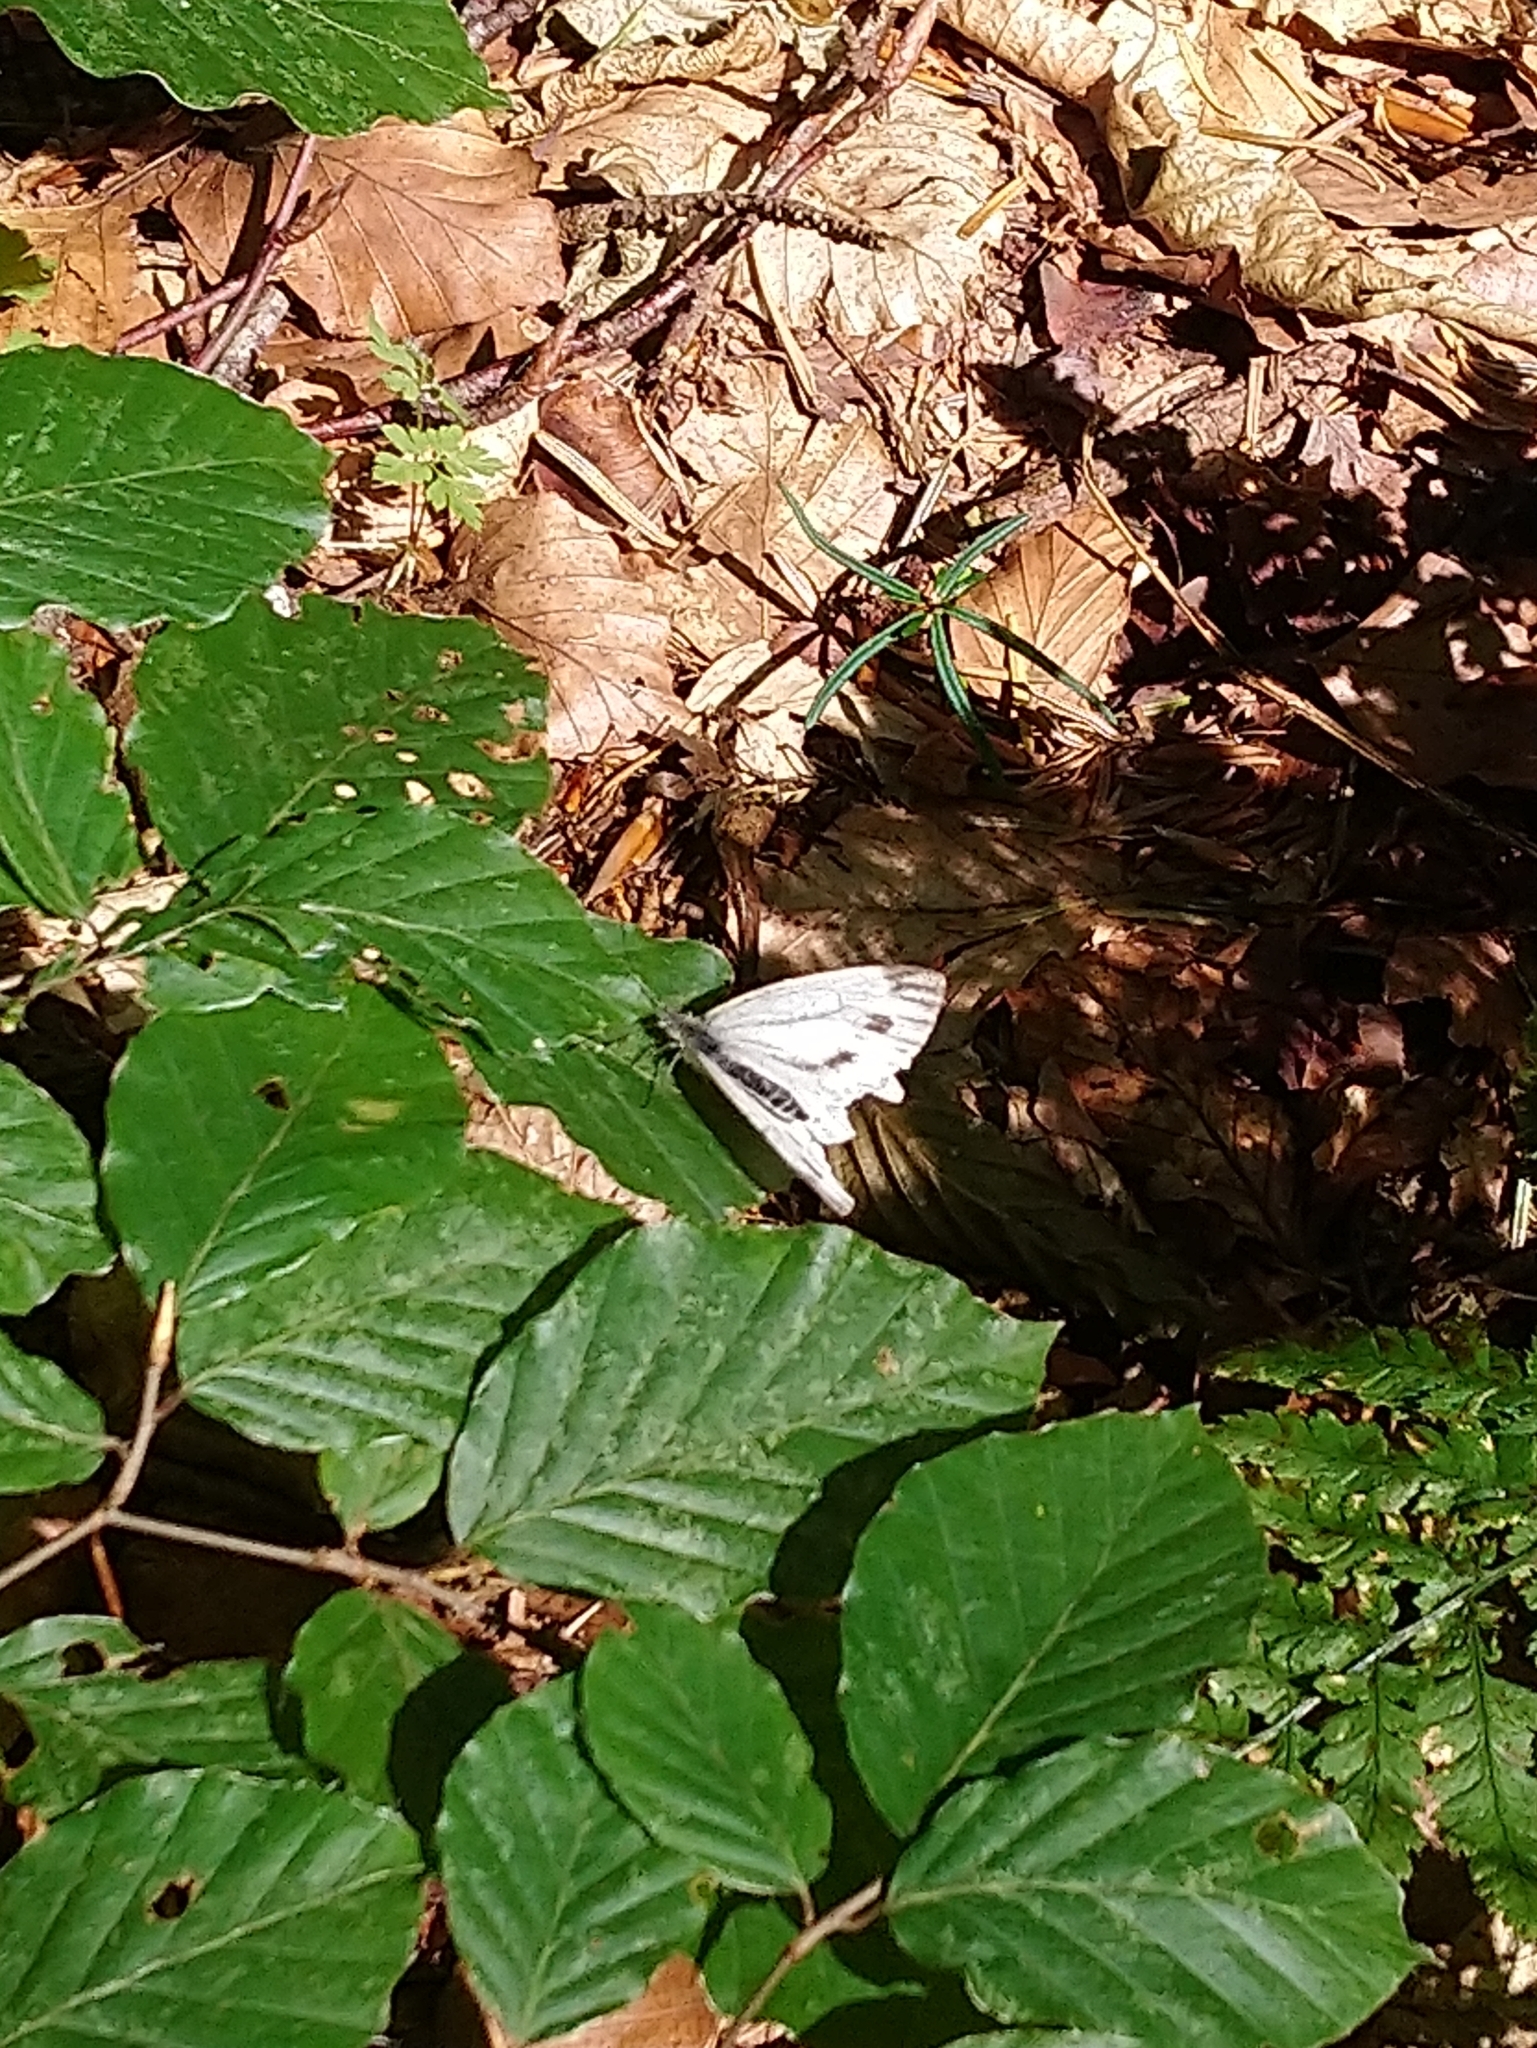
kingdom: Animalia
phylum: Arthropoda
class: Insecta
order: Lepidoptera
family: Pieridae
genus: Pieris
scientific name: Pieris napi
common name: Green-veined white
